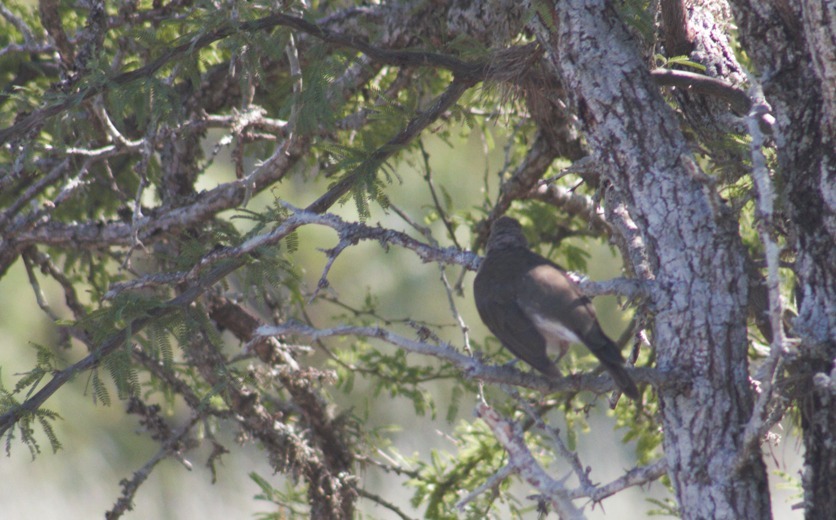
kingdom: Animalia
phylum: Chordata
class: Aves
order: Passeriformes
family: Turdidae
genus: Turdus
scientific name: Turdus amaurochalinus
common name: Creamy-bellied thrush
